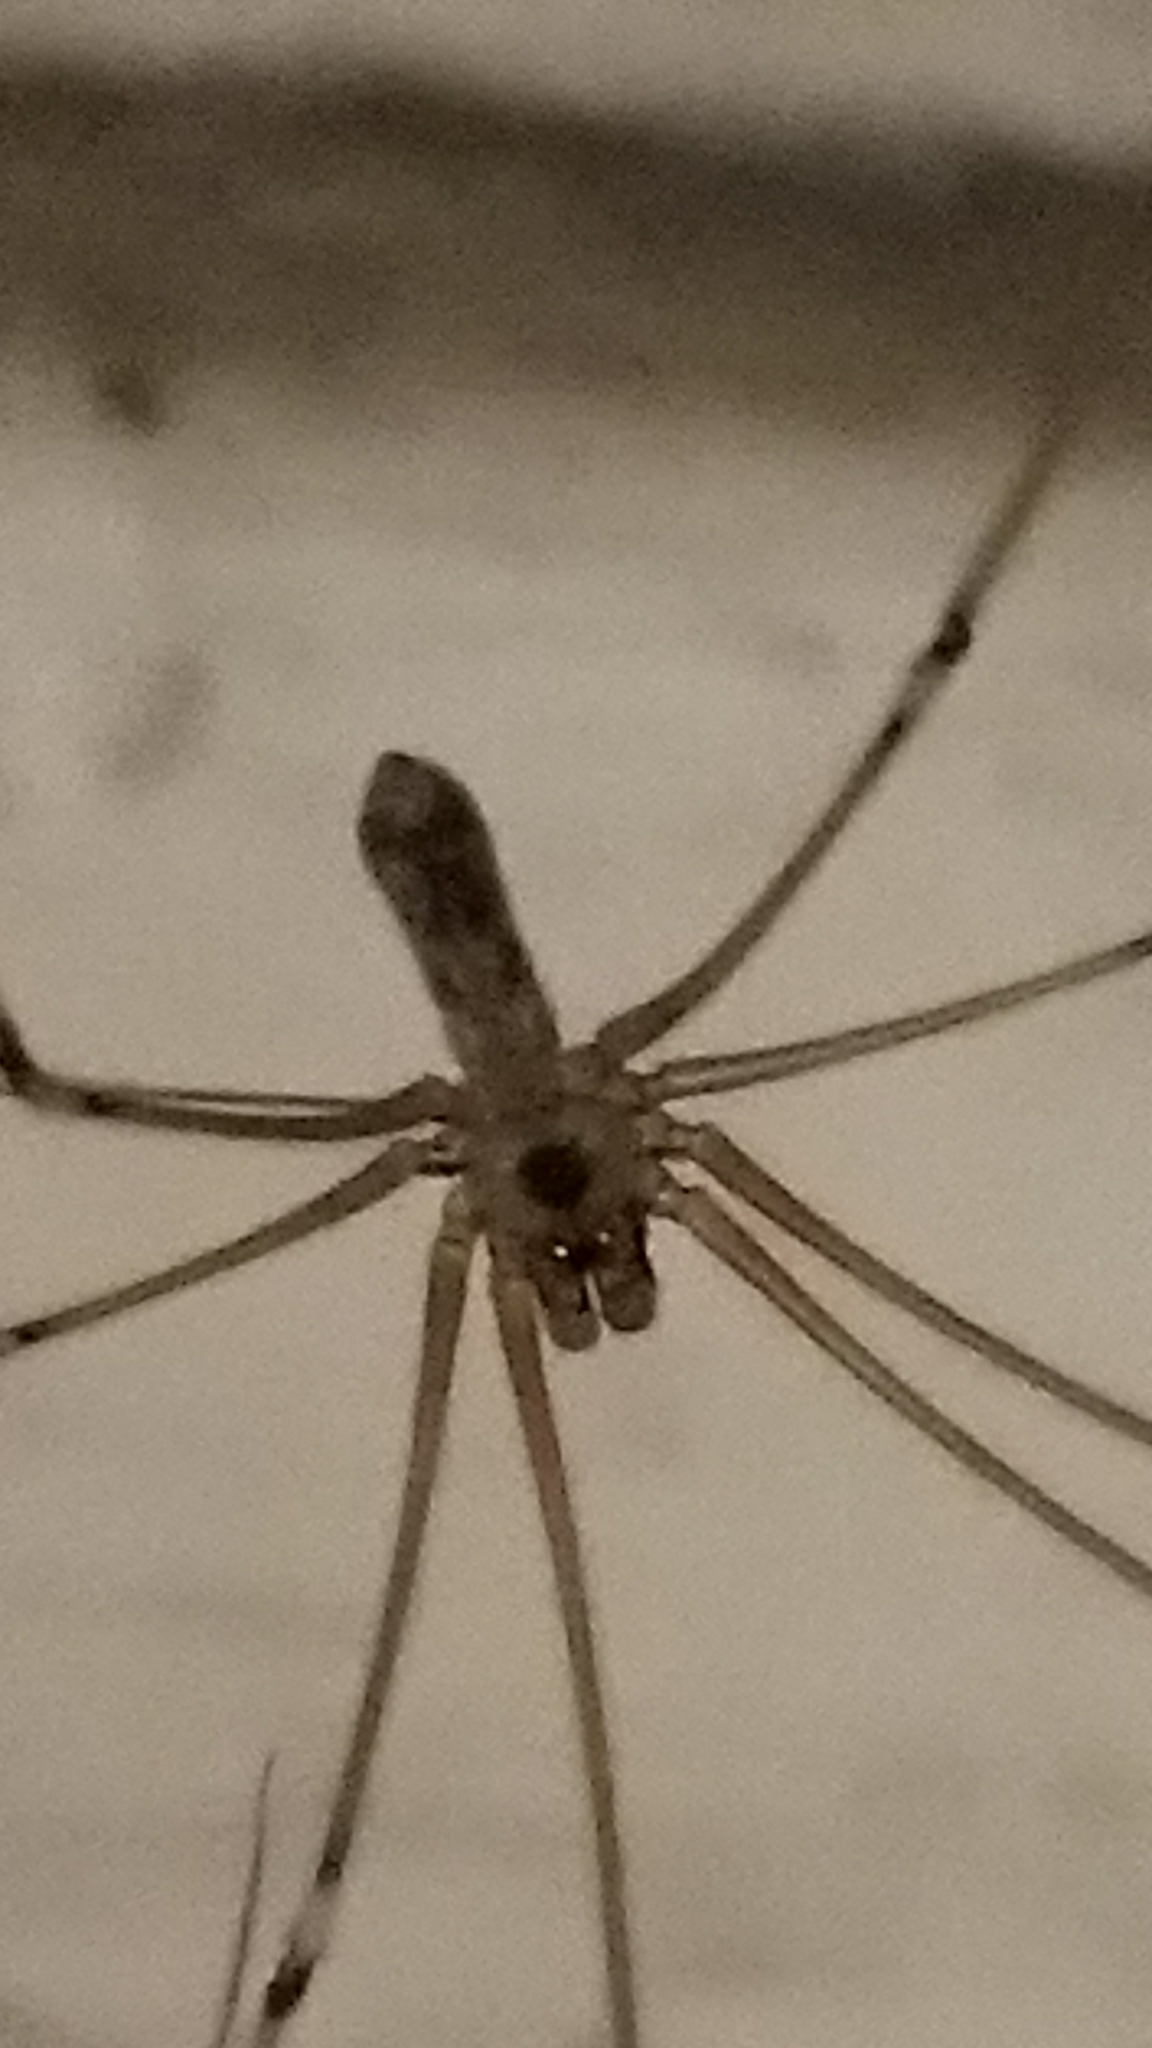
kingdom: Animalia
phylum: Arthropoda
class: Arachnida
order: Araneae
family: Pholcidae
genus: Pholcus
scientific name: Pholcus phalangioides
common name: Longbodied cellar spider
